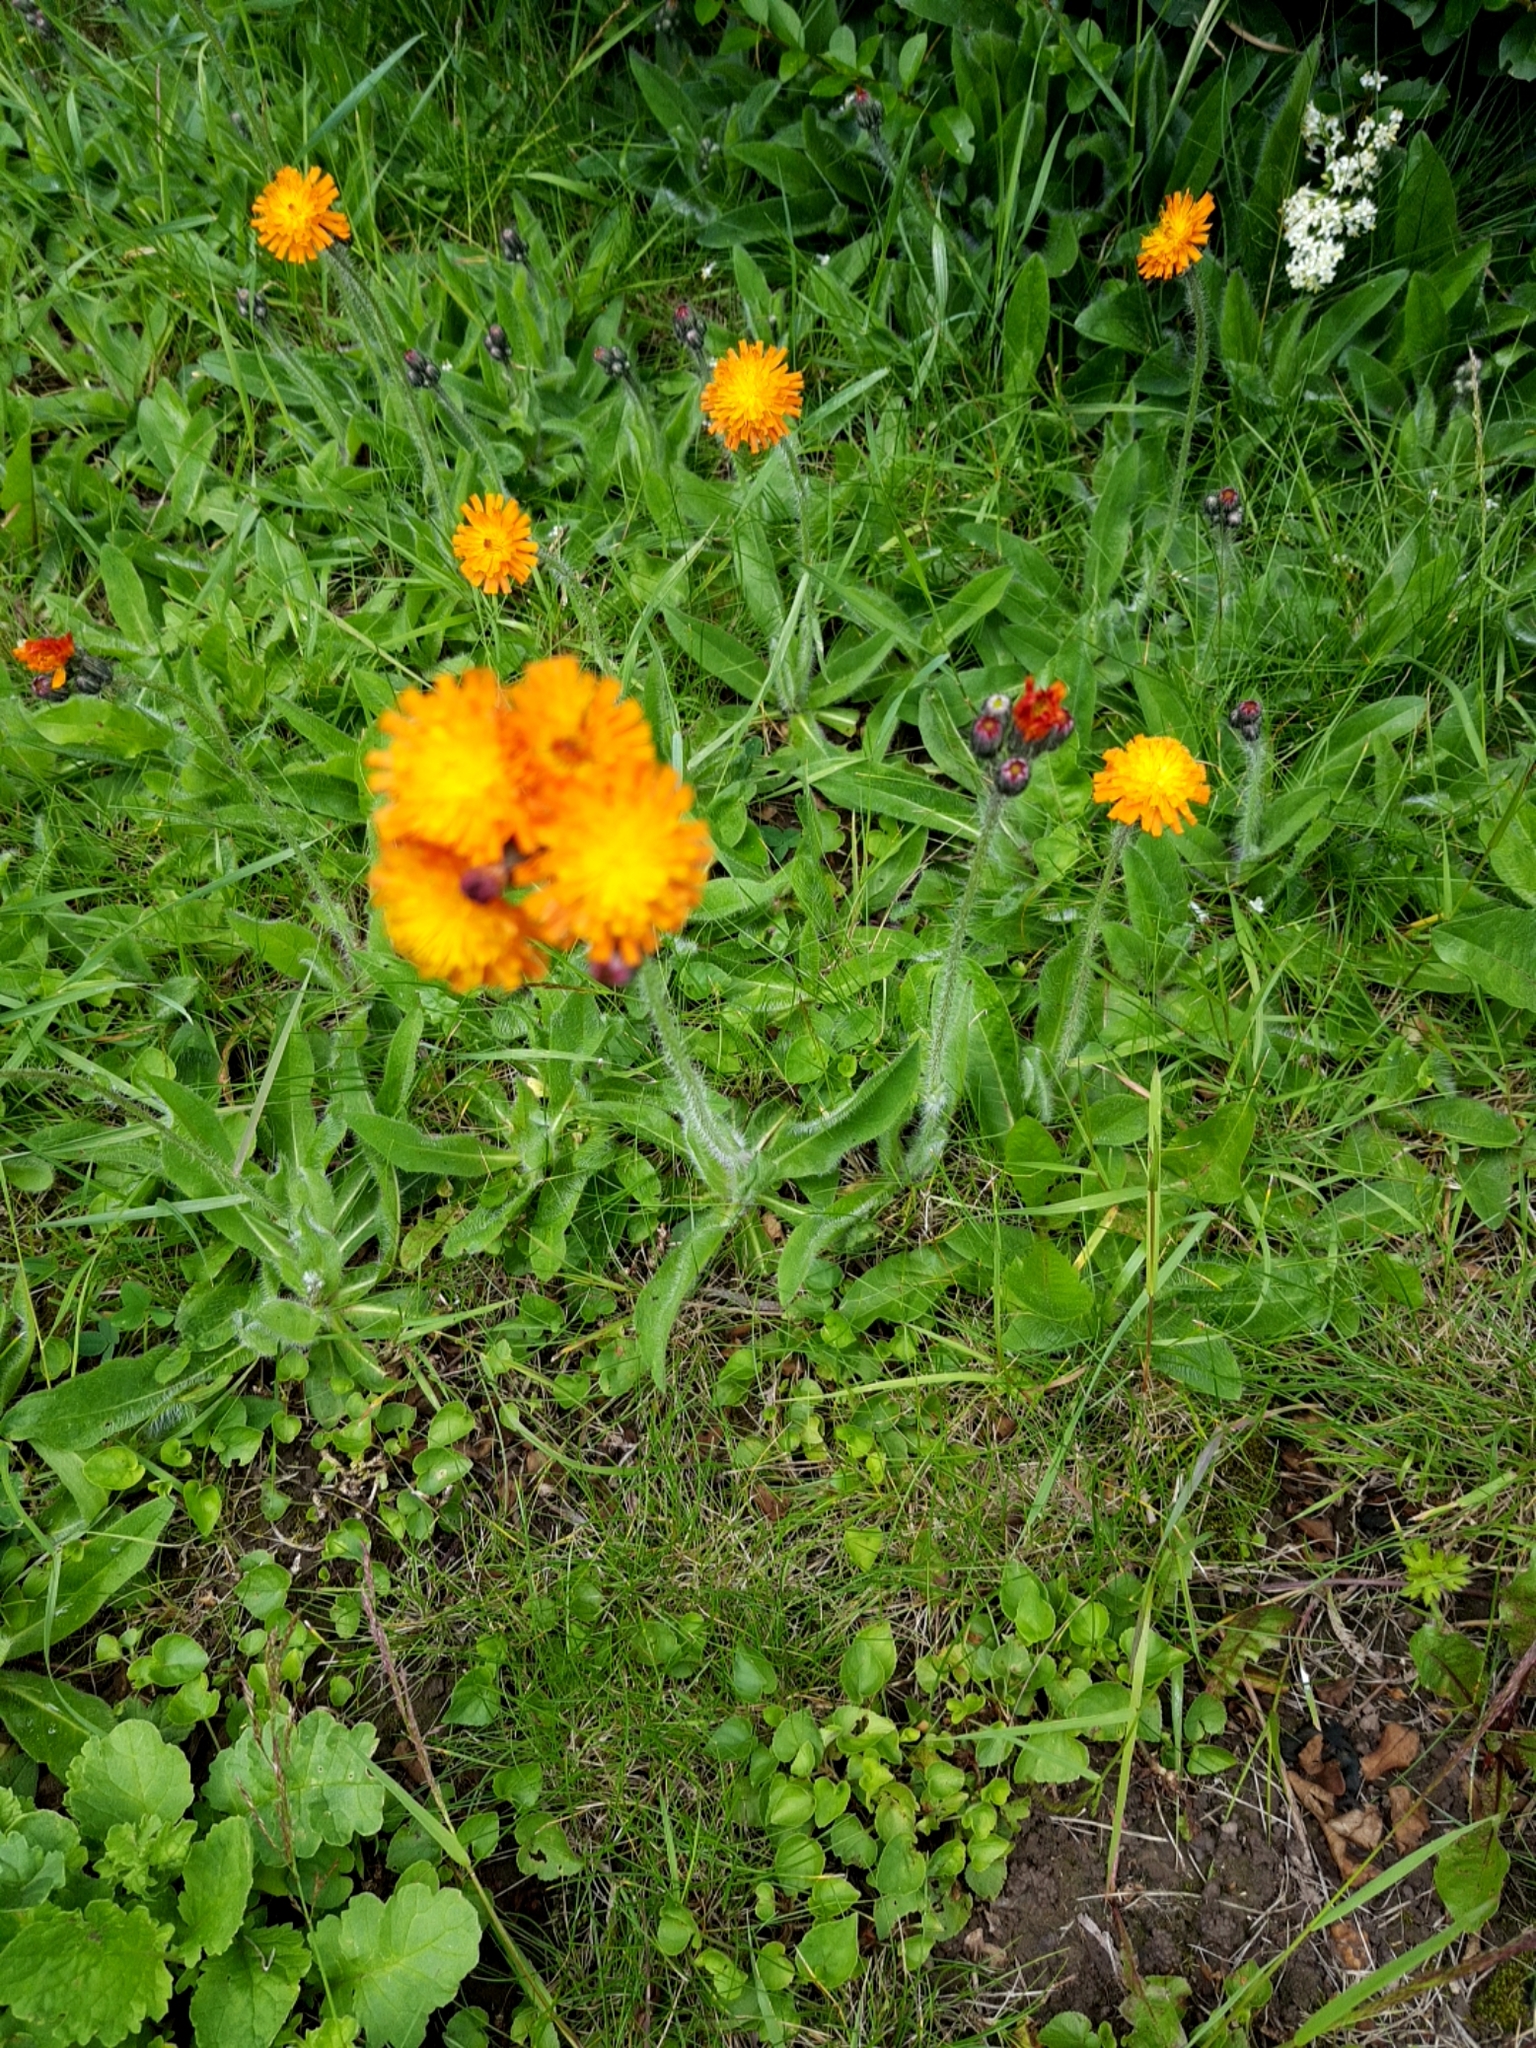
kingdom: Plantae
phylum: Tracheophyta
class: Magnoliopsida
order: Asterales
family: Asteraceae
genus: Pilosella
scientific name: Pilosella aurantiaca
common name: Fox-and-cubs
